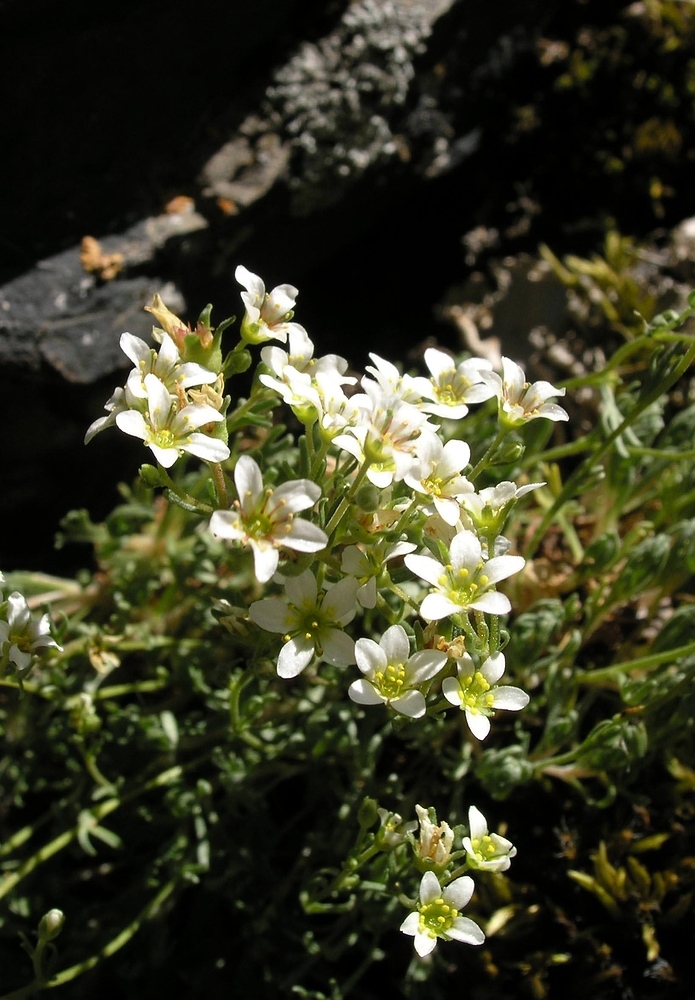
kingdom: Plantae
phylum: Tracheophyta
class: Magnoliopsida
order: Saxifragales
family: Saxifragaceae
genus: Saxifraga
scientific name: Saxifraga intricata
